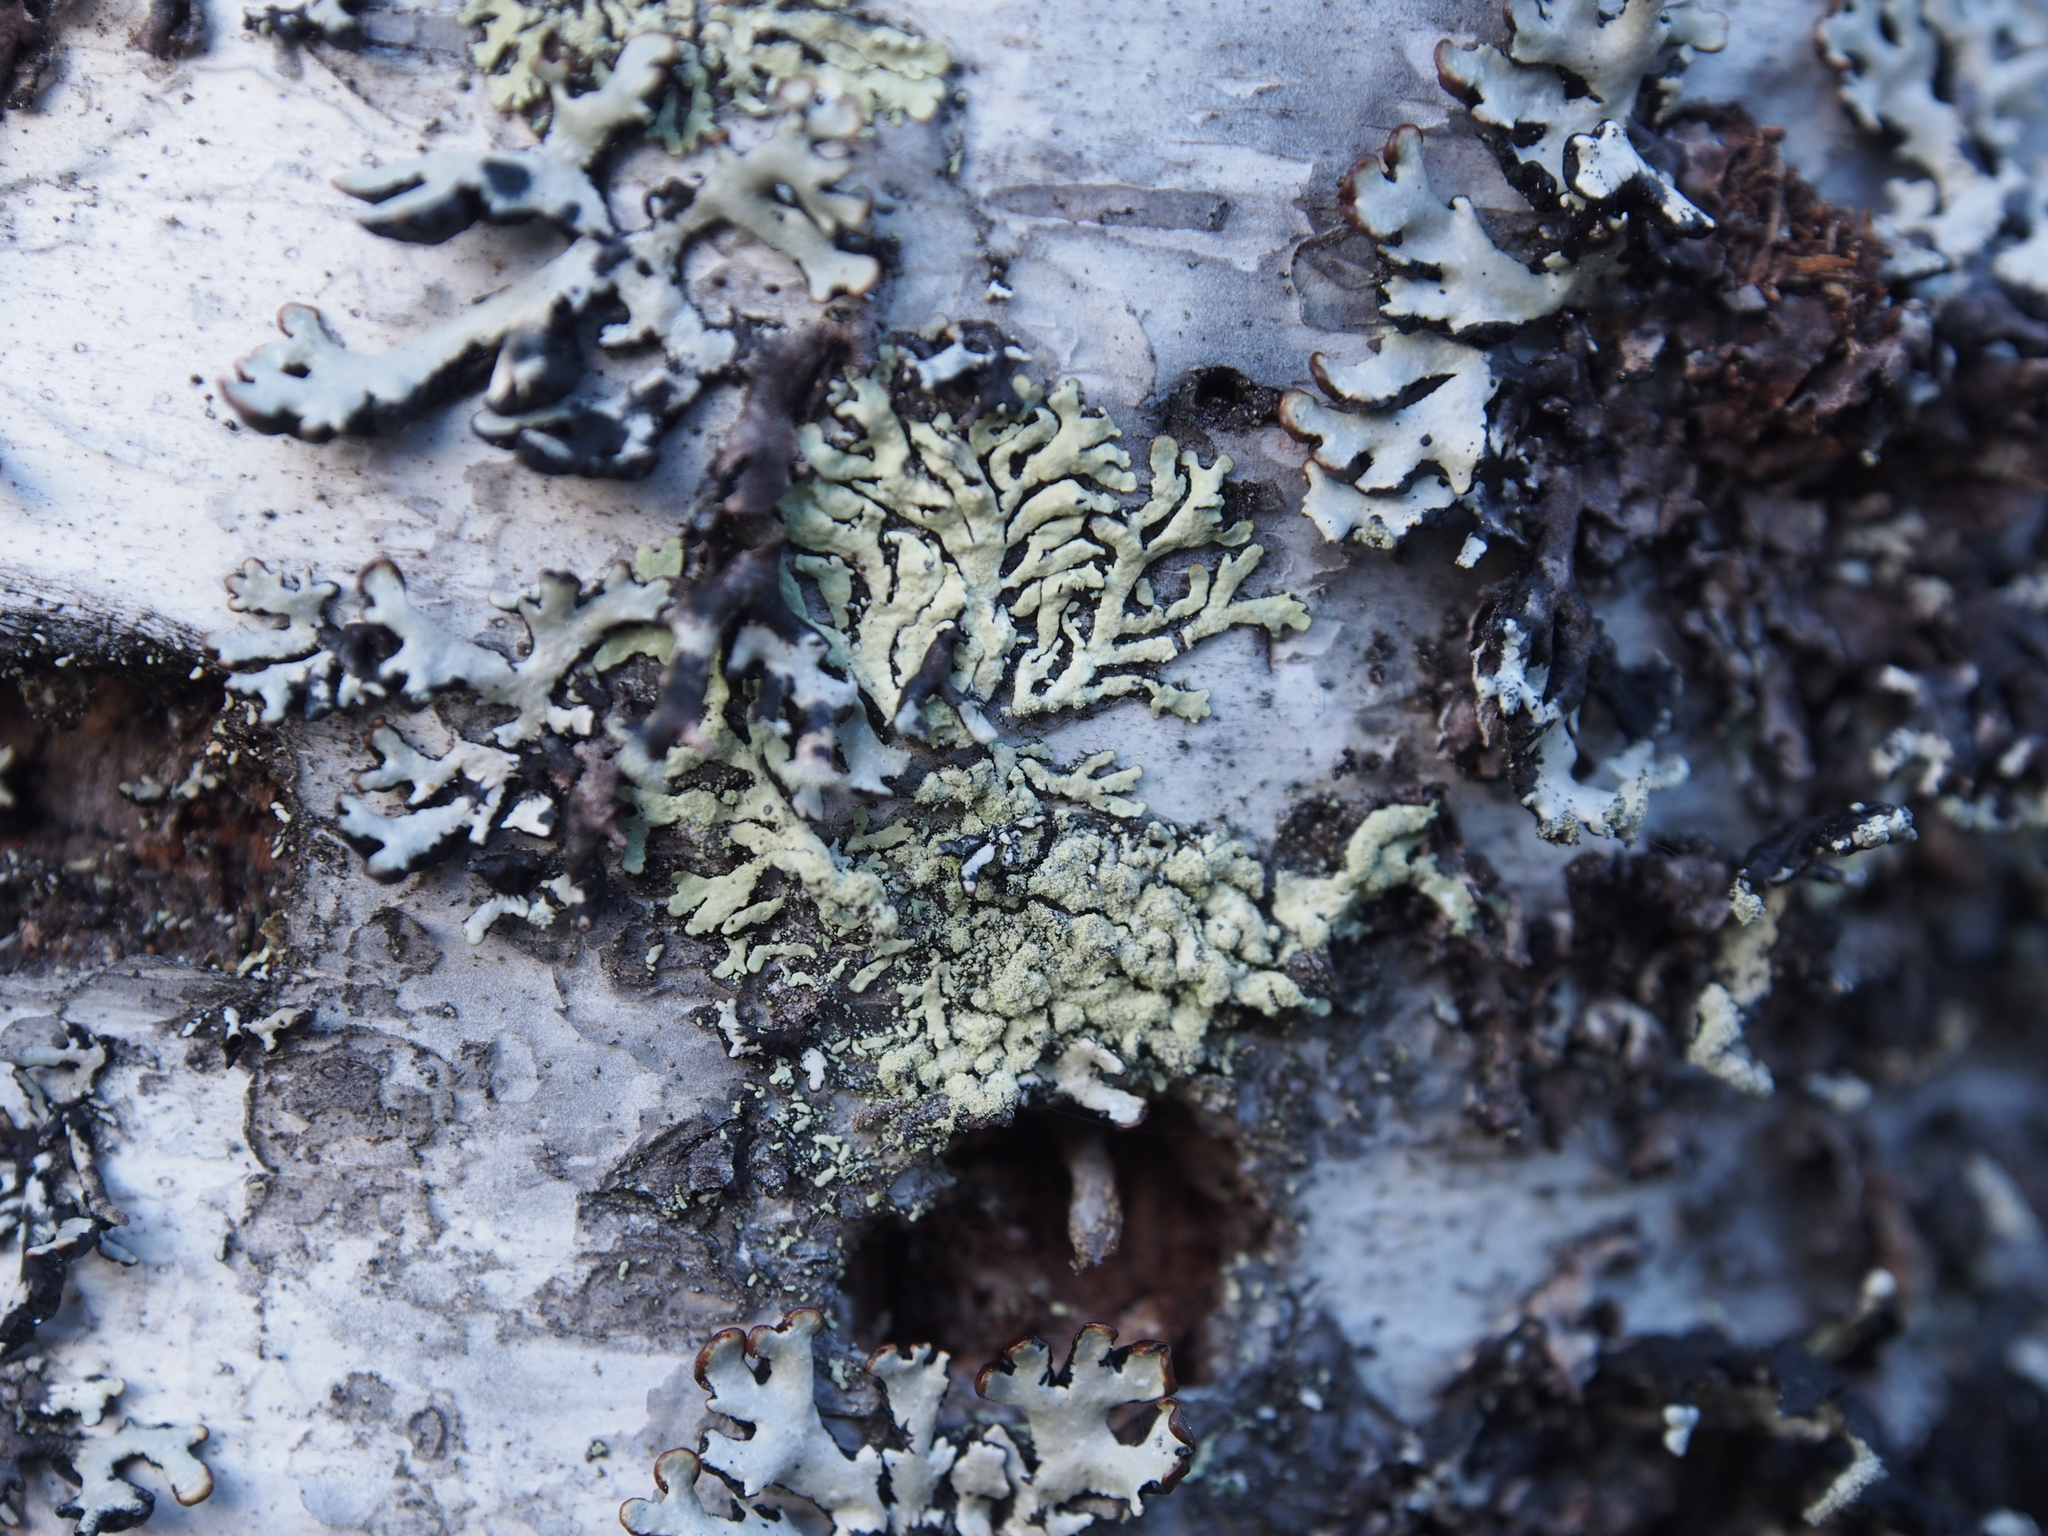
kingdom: Fungi
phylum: Ascomycota
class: Lecanoromycetes
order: Lecanorales
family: Parmeliaceae
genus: Hypogymnia
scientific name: Hypogymnia physodes
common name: Dark crottle
